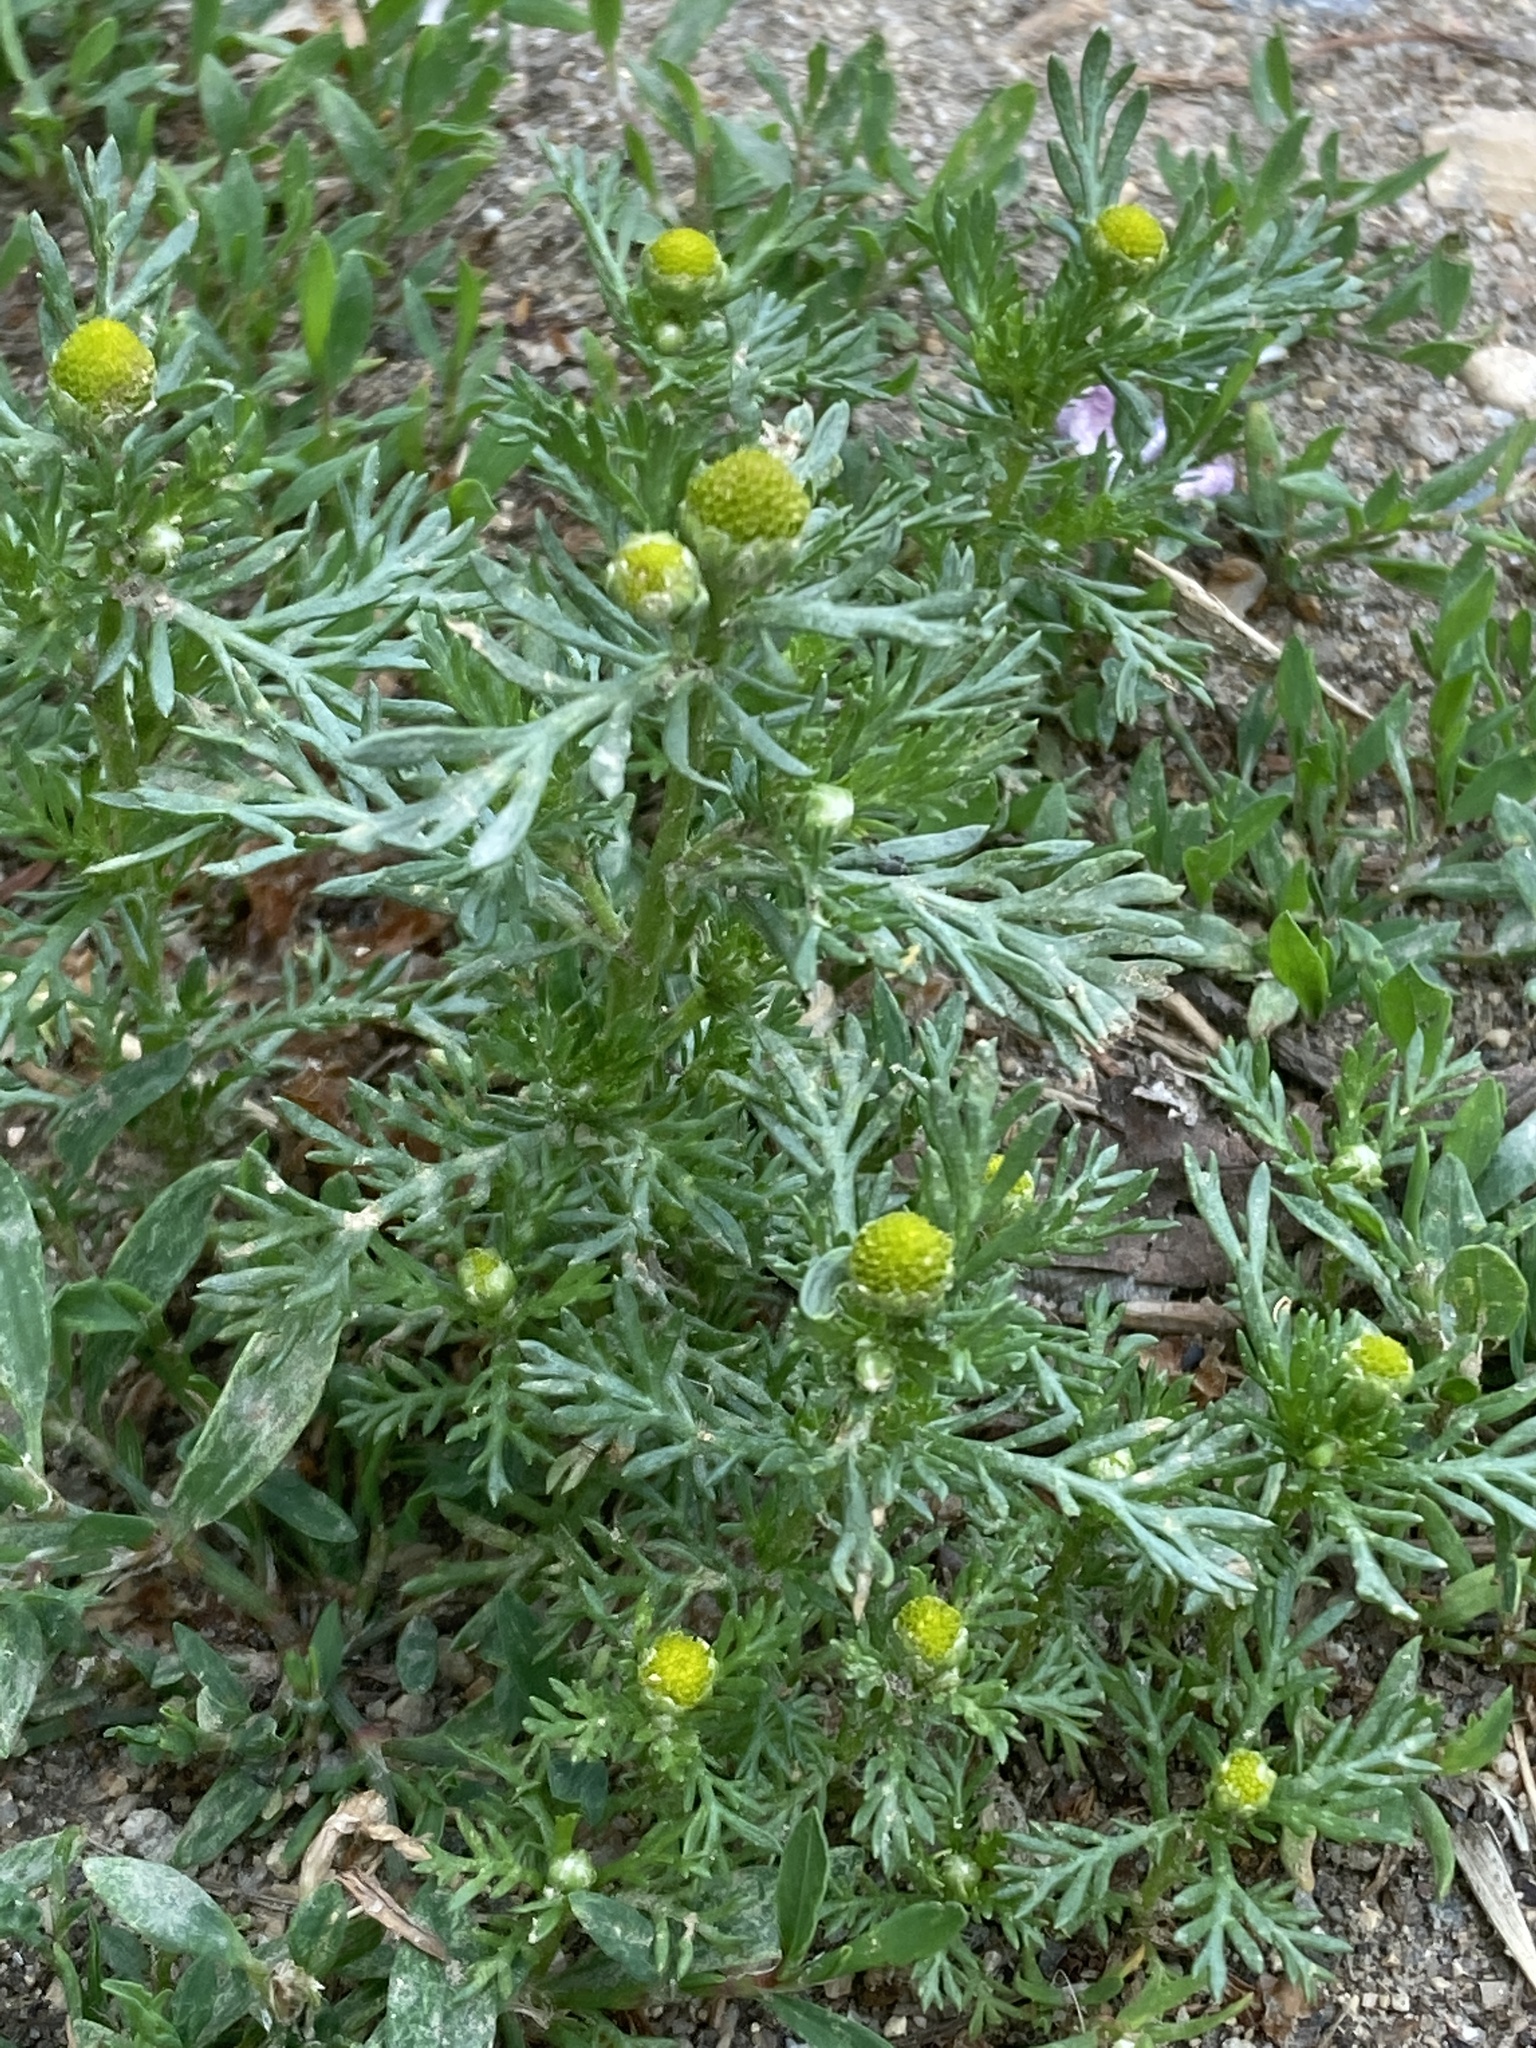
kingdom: Plantae
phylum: Tracheophyta
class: Magnoliopsida
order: Asterales
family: Asteraceae
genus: Matricaria
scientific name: Matricaria discoidea
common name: Disc mayweed
